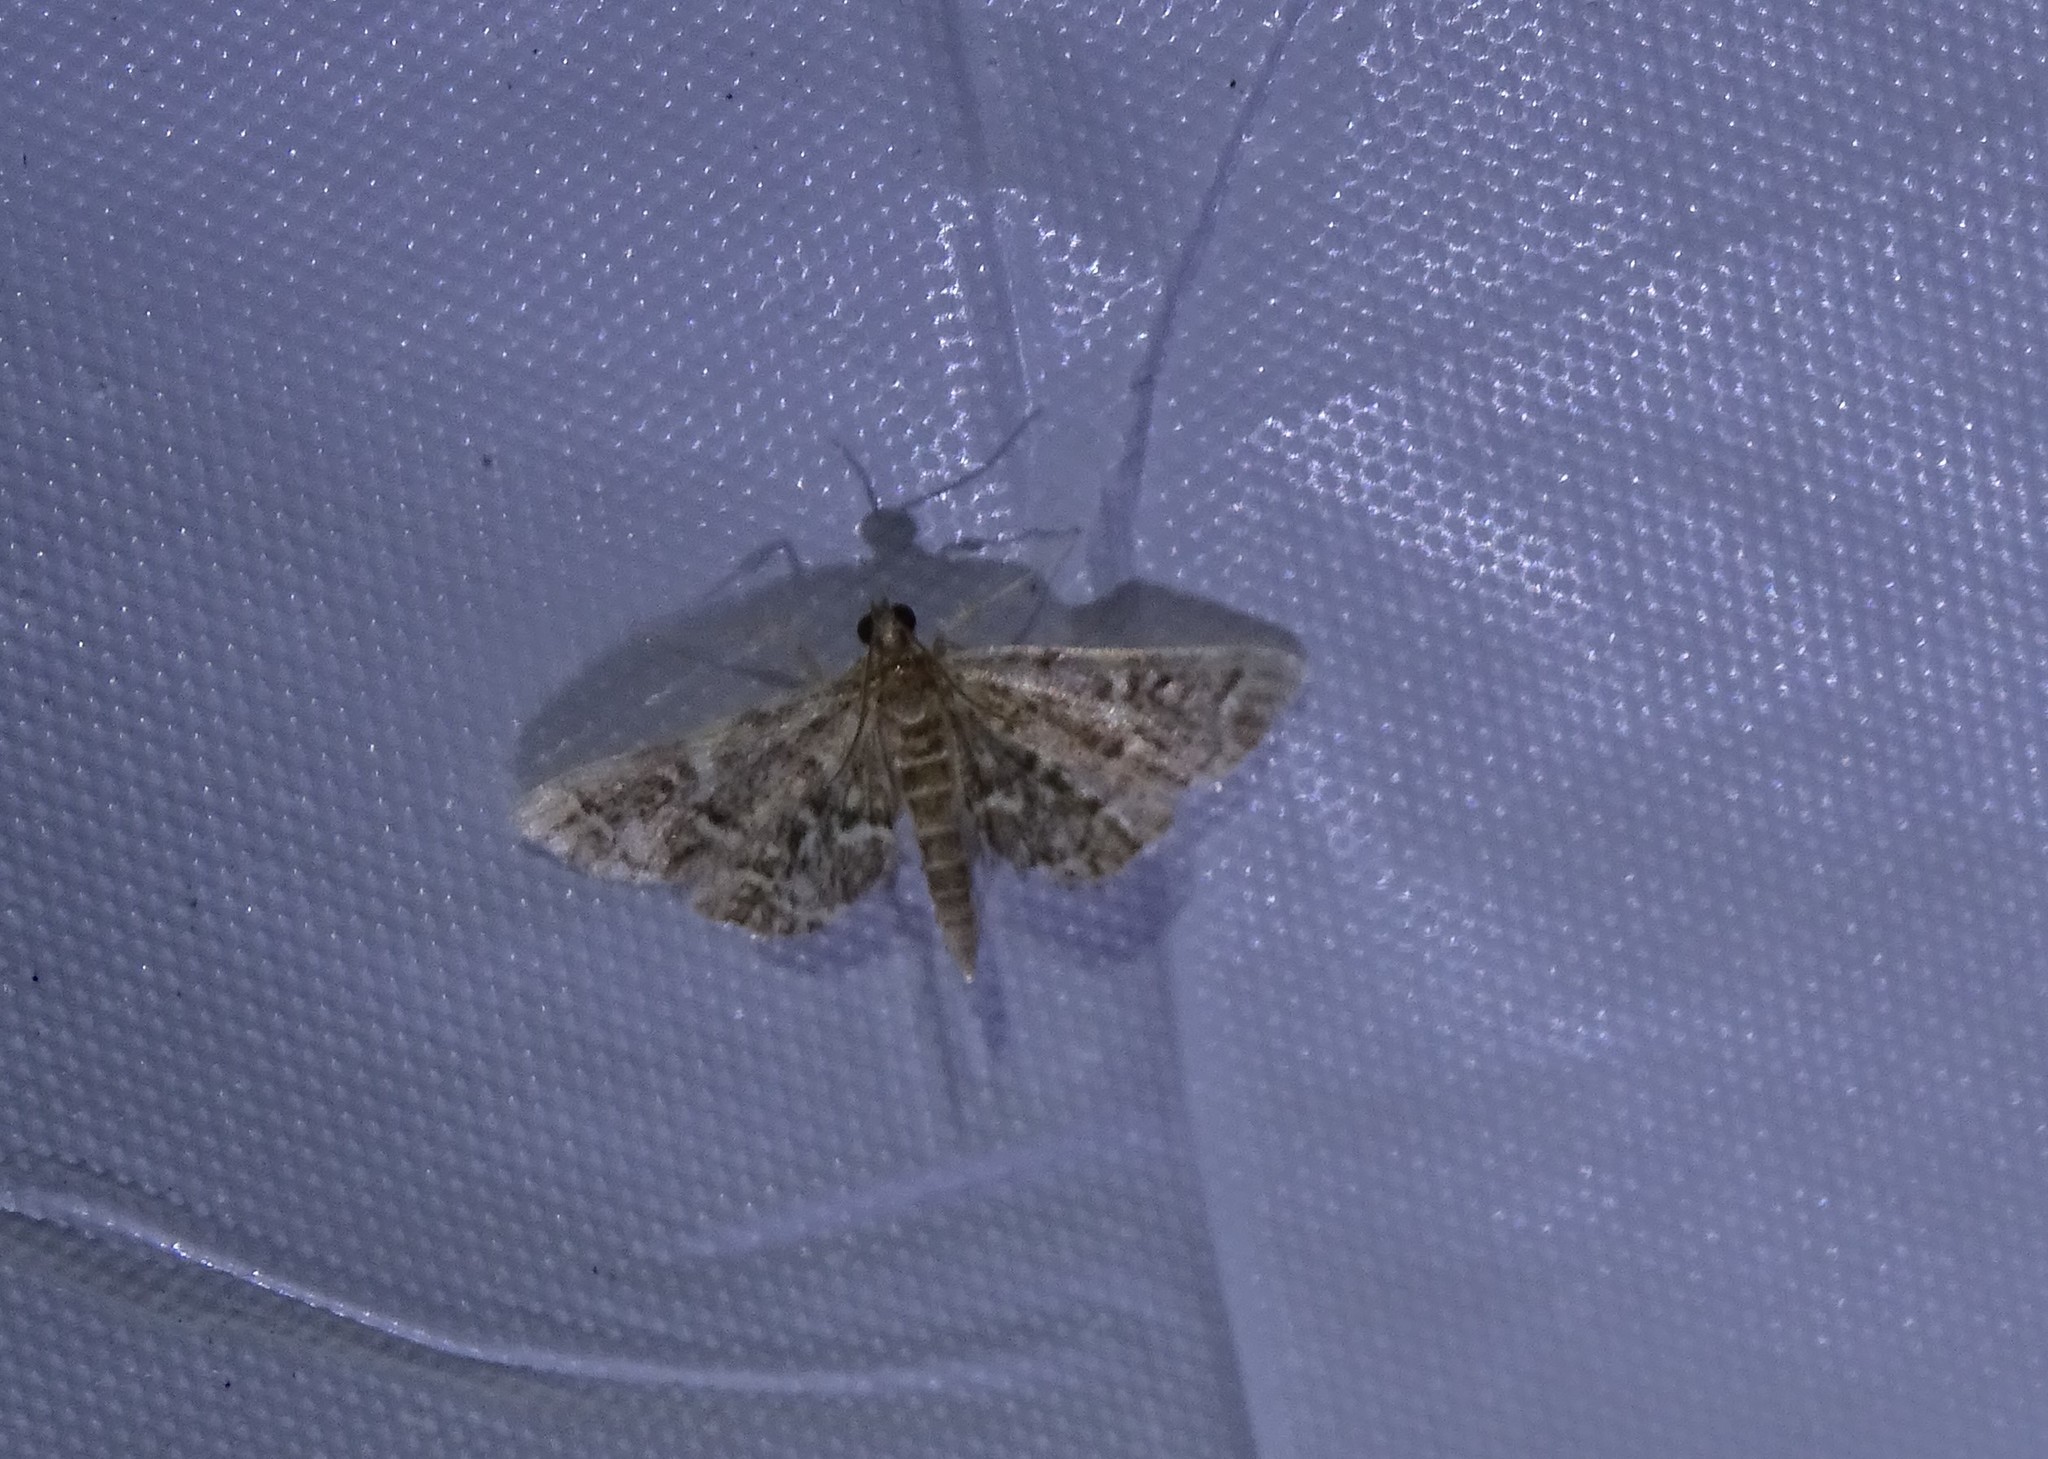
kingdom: Animalia
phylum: Arthropoda
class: Insecta
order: Lepidoptera
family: Crambidae
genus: Anageshna
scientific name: Anageshna primordialis
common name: Yellow-spotted webworm moth
